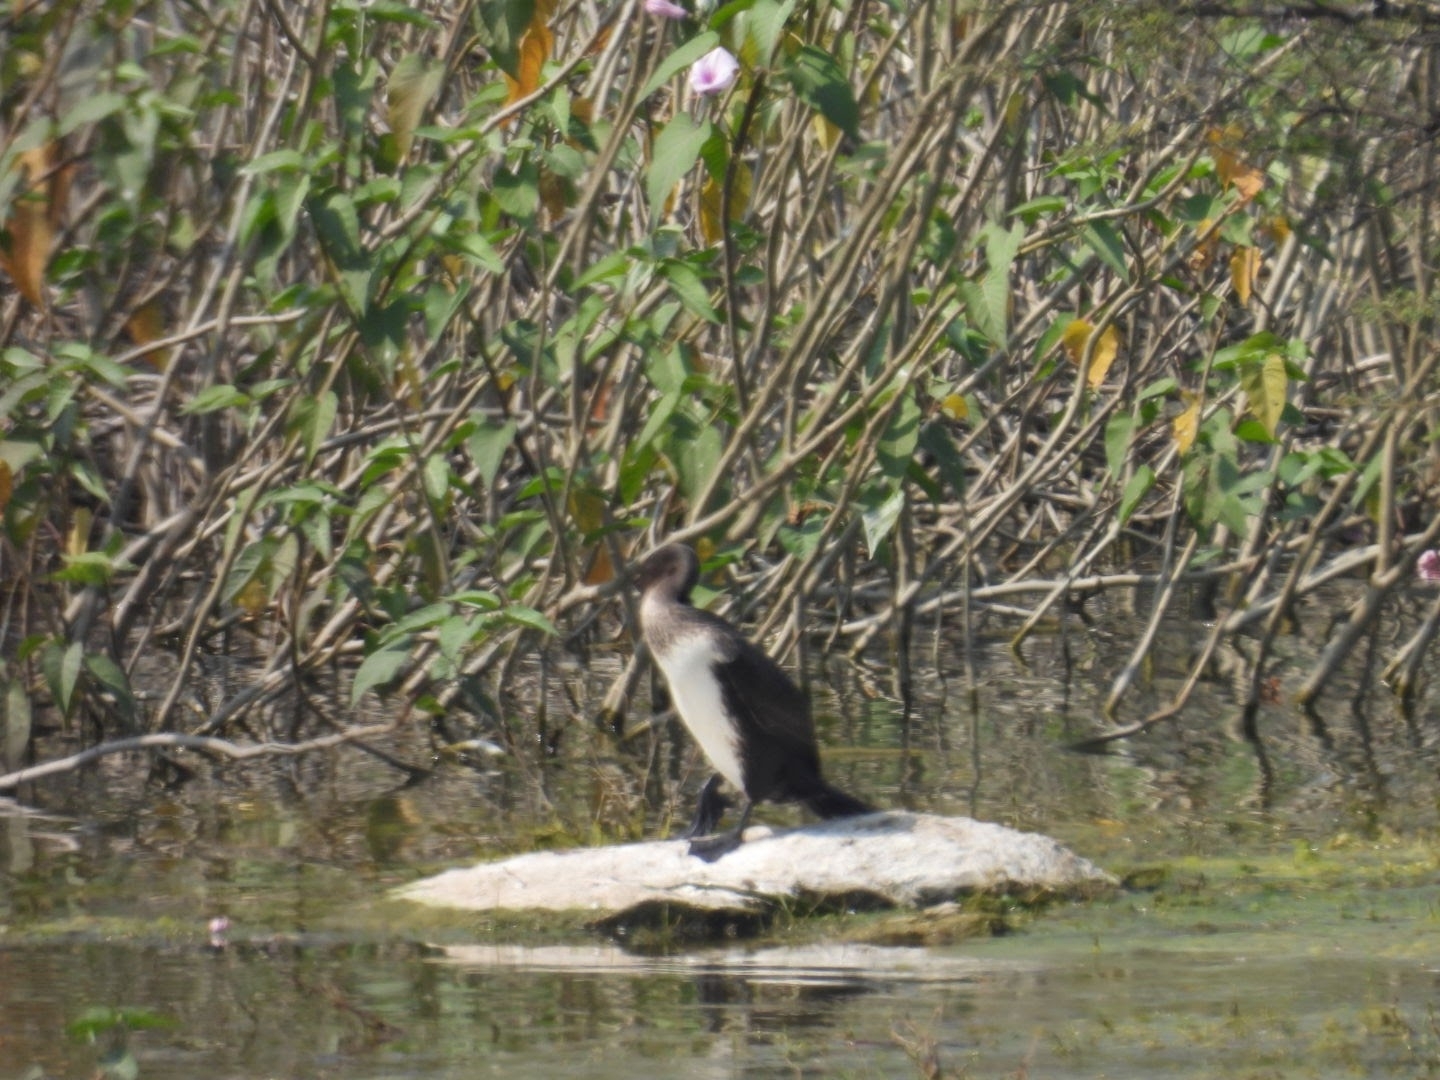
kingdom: Animalia
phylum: Chordata
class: Aves
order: Suliformes
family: Phalacrocoracidae
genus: Phalacrocorax
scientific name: Phalacrocorax carbo
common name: Great cormorant
